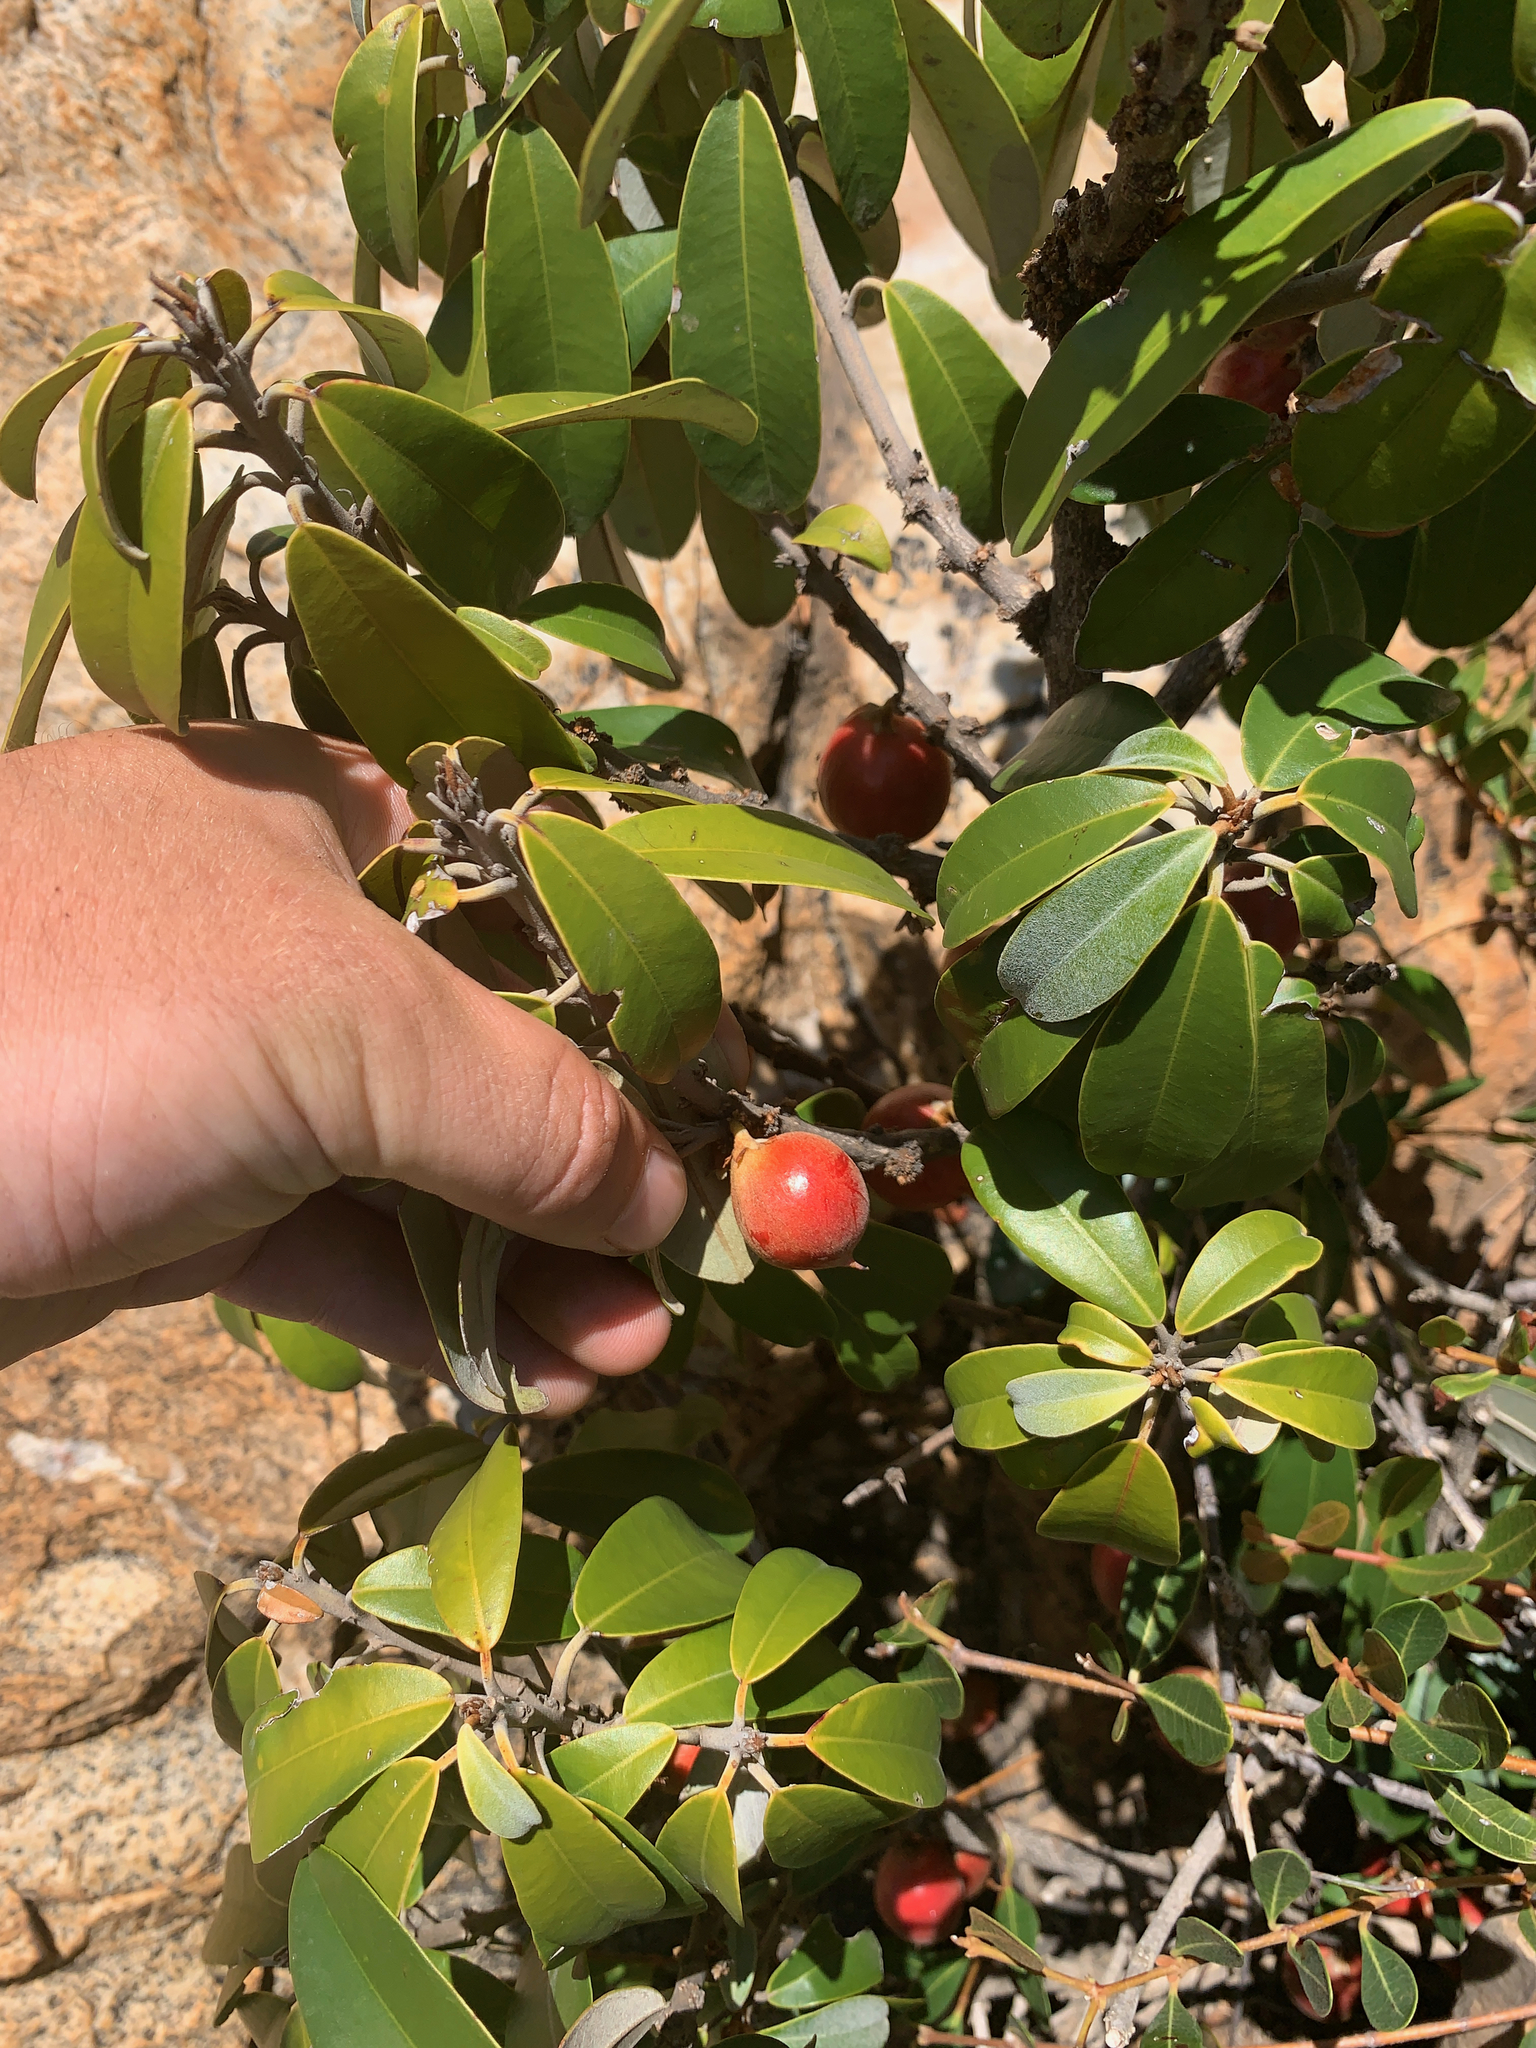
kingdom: Plantae
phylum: Tracheophyta
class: Magnoliopsida
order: Ericales
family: Sapotaceae
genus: Englerophytum
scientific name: Englerophytum magalismontanum
